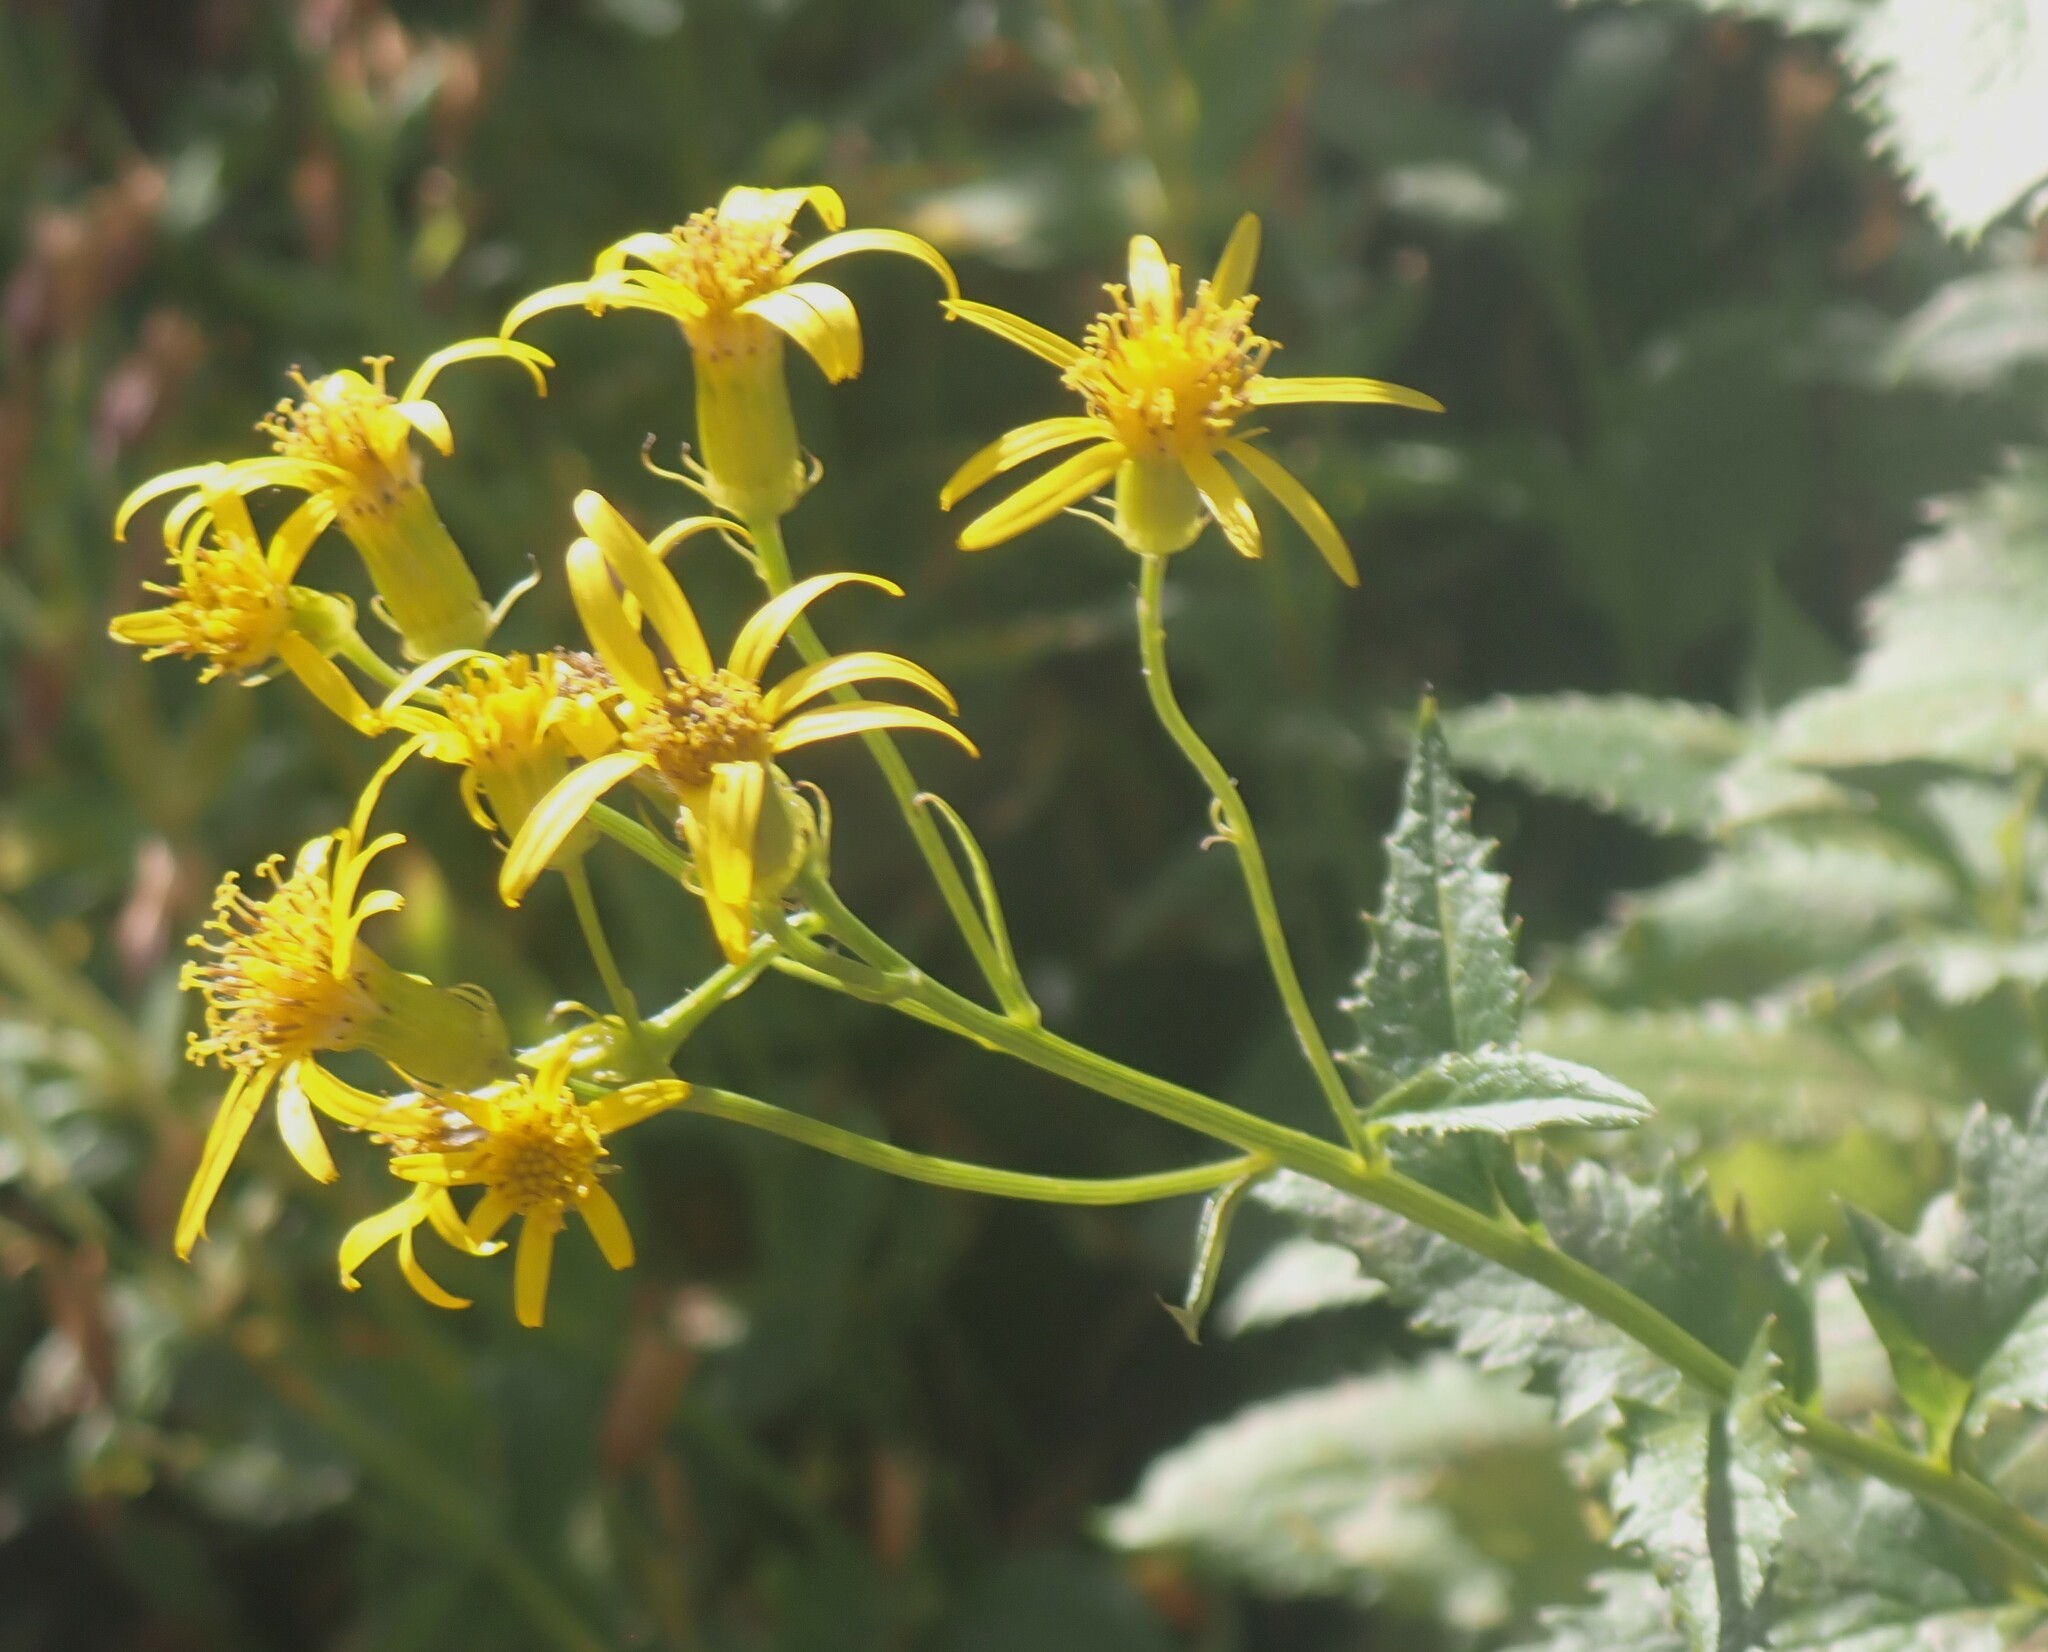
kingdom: Plantae
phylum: Tracheophyta
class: Magnoliopsida
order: Asterales
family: Asteraceae
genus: Senecio
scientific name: Senecio triangularis
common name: Arrowleaf butterweed
